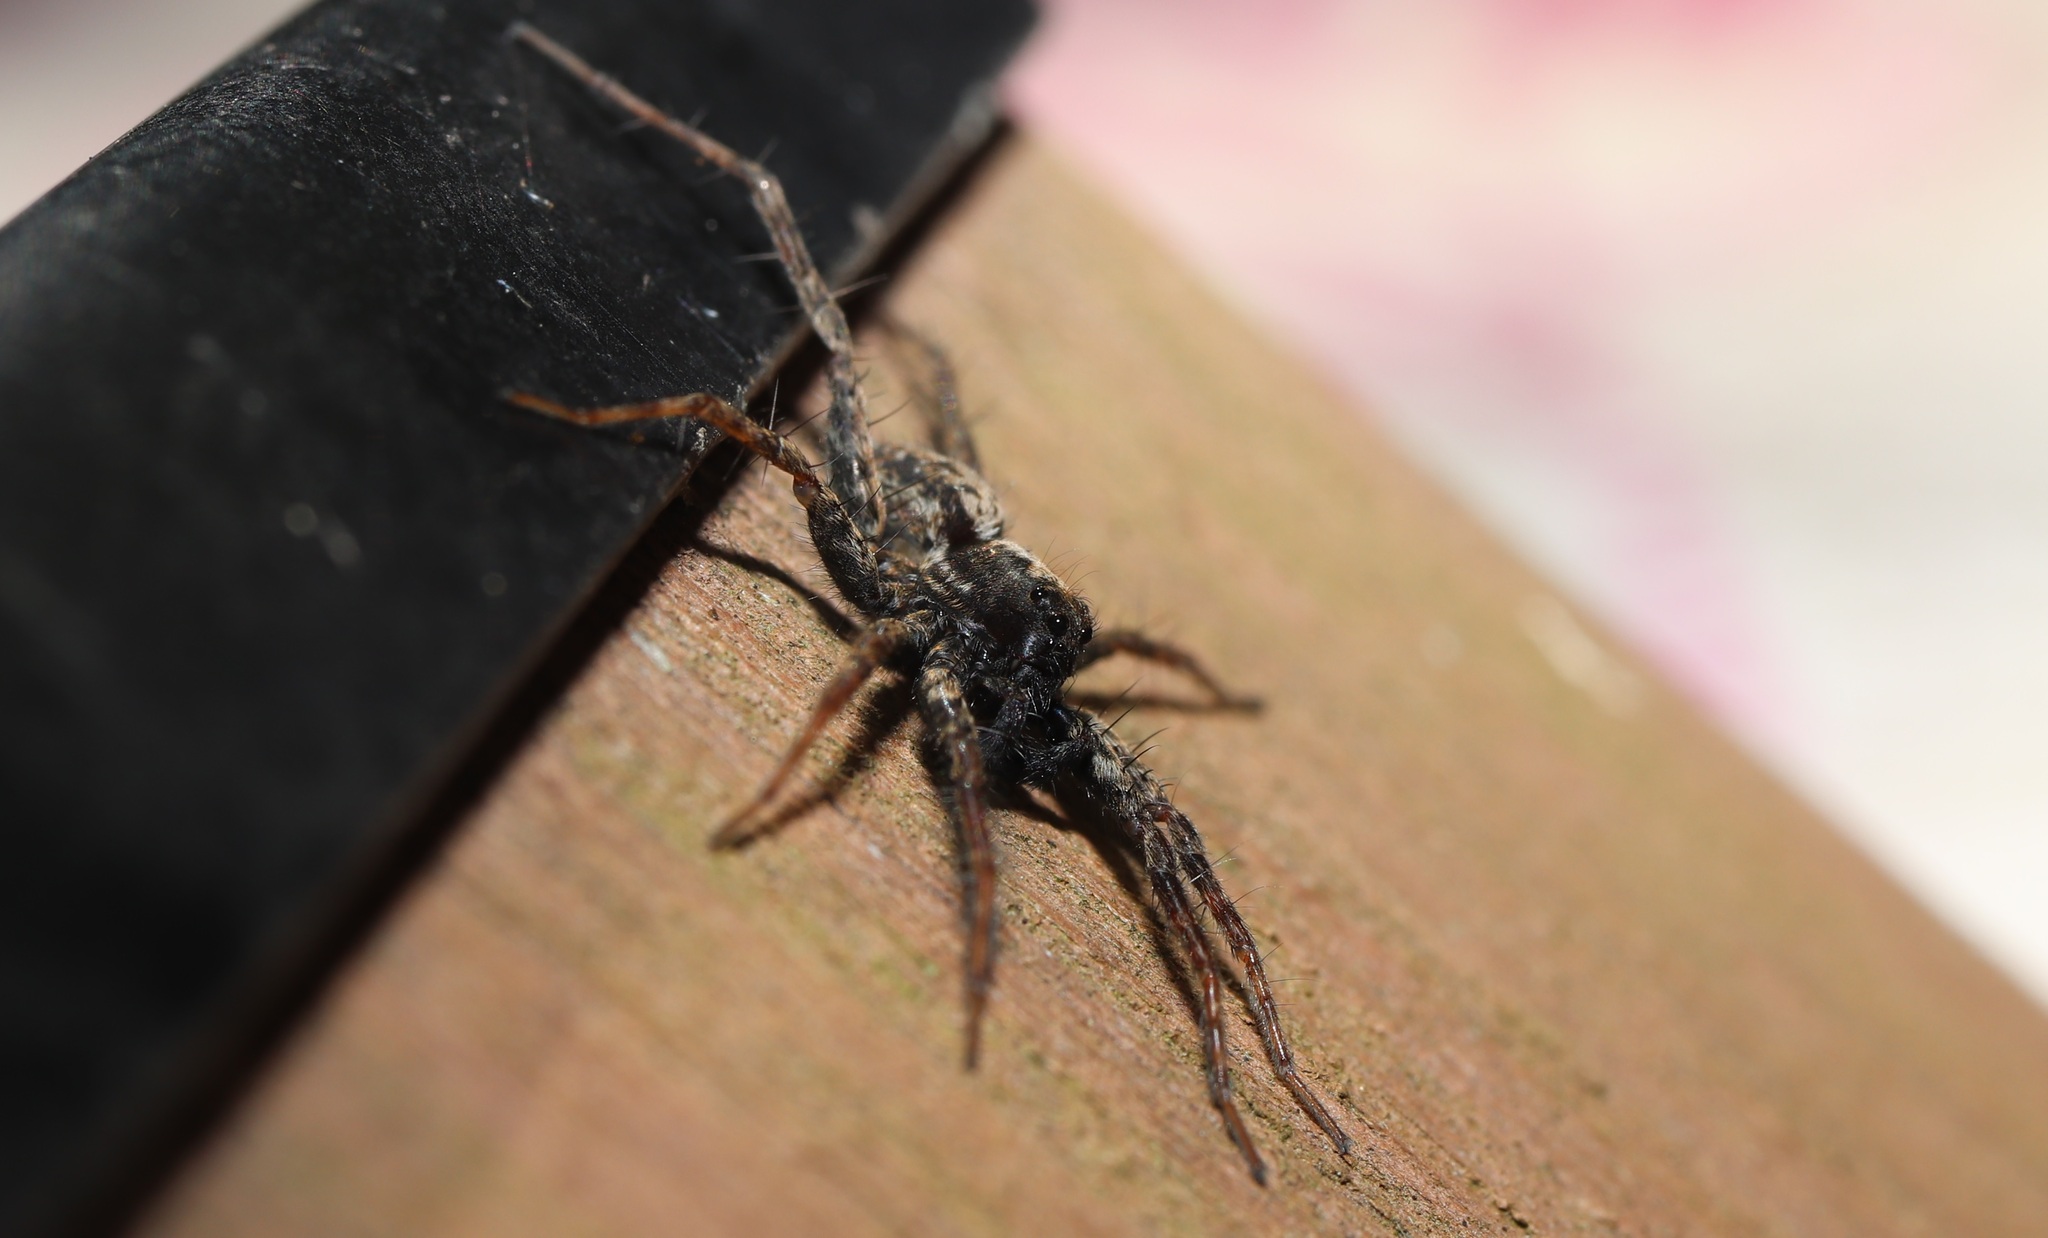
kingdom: Animalia
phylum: Arthropoda
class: Arachnida
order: Araneae
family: Lycosidae
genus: Pardosa
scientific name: Pardosa astrigera
